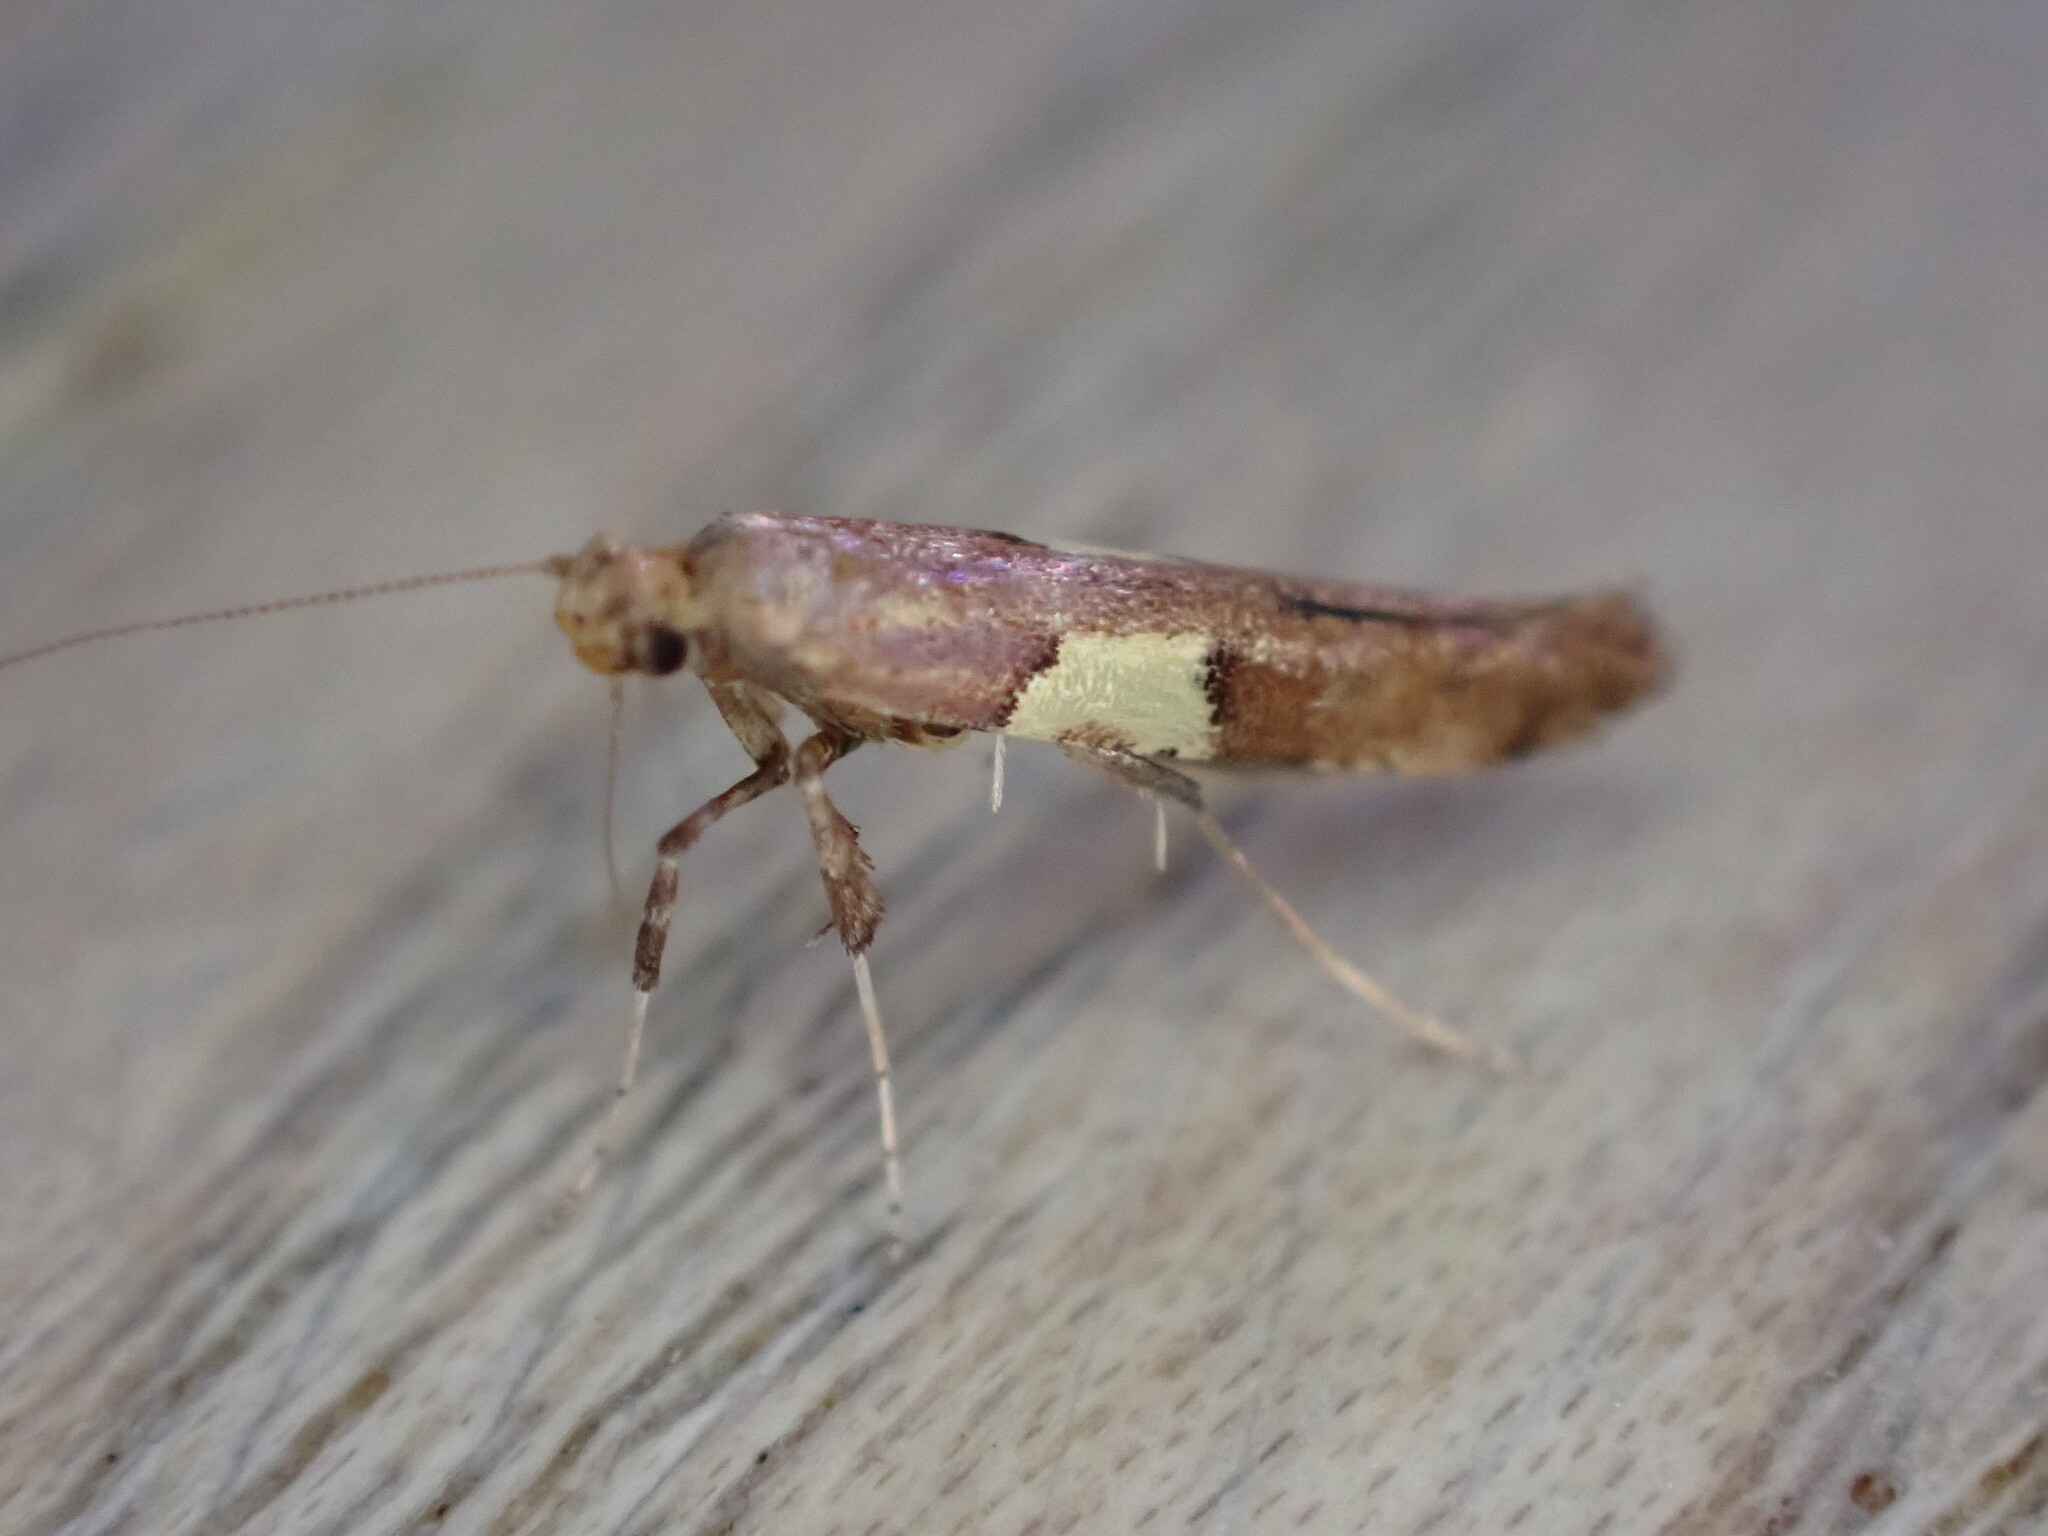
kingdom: Animalia
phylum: Arthropoda
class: Insecta
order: Lepidoptera
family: Gracillariidae
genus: Caloptilia
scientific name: Caloptilia semifascia
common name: Maple slender
